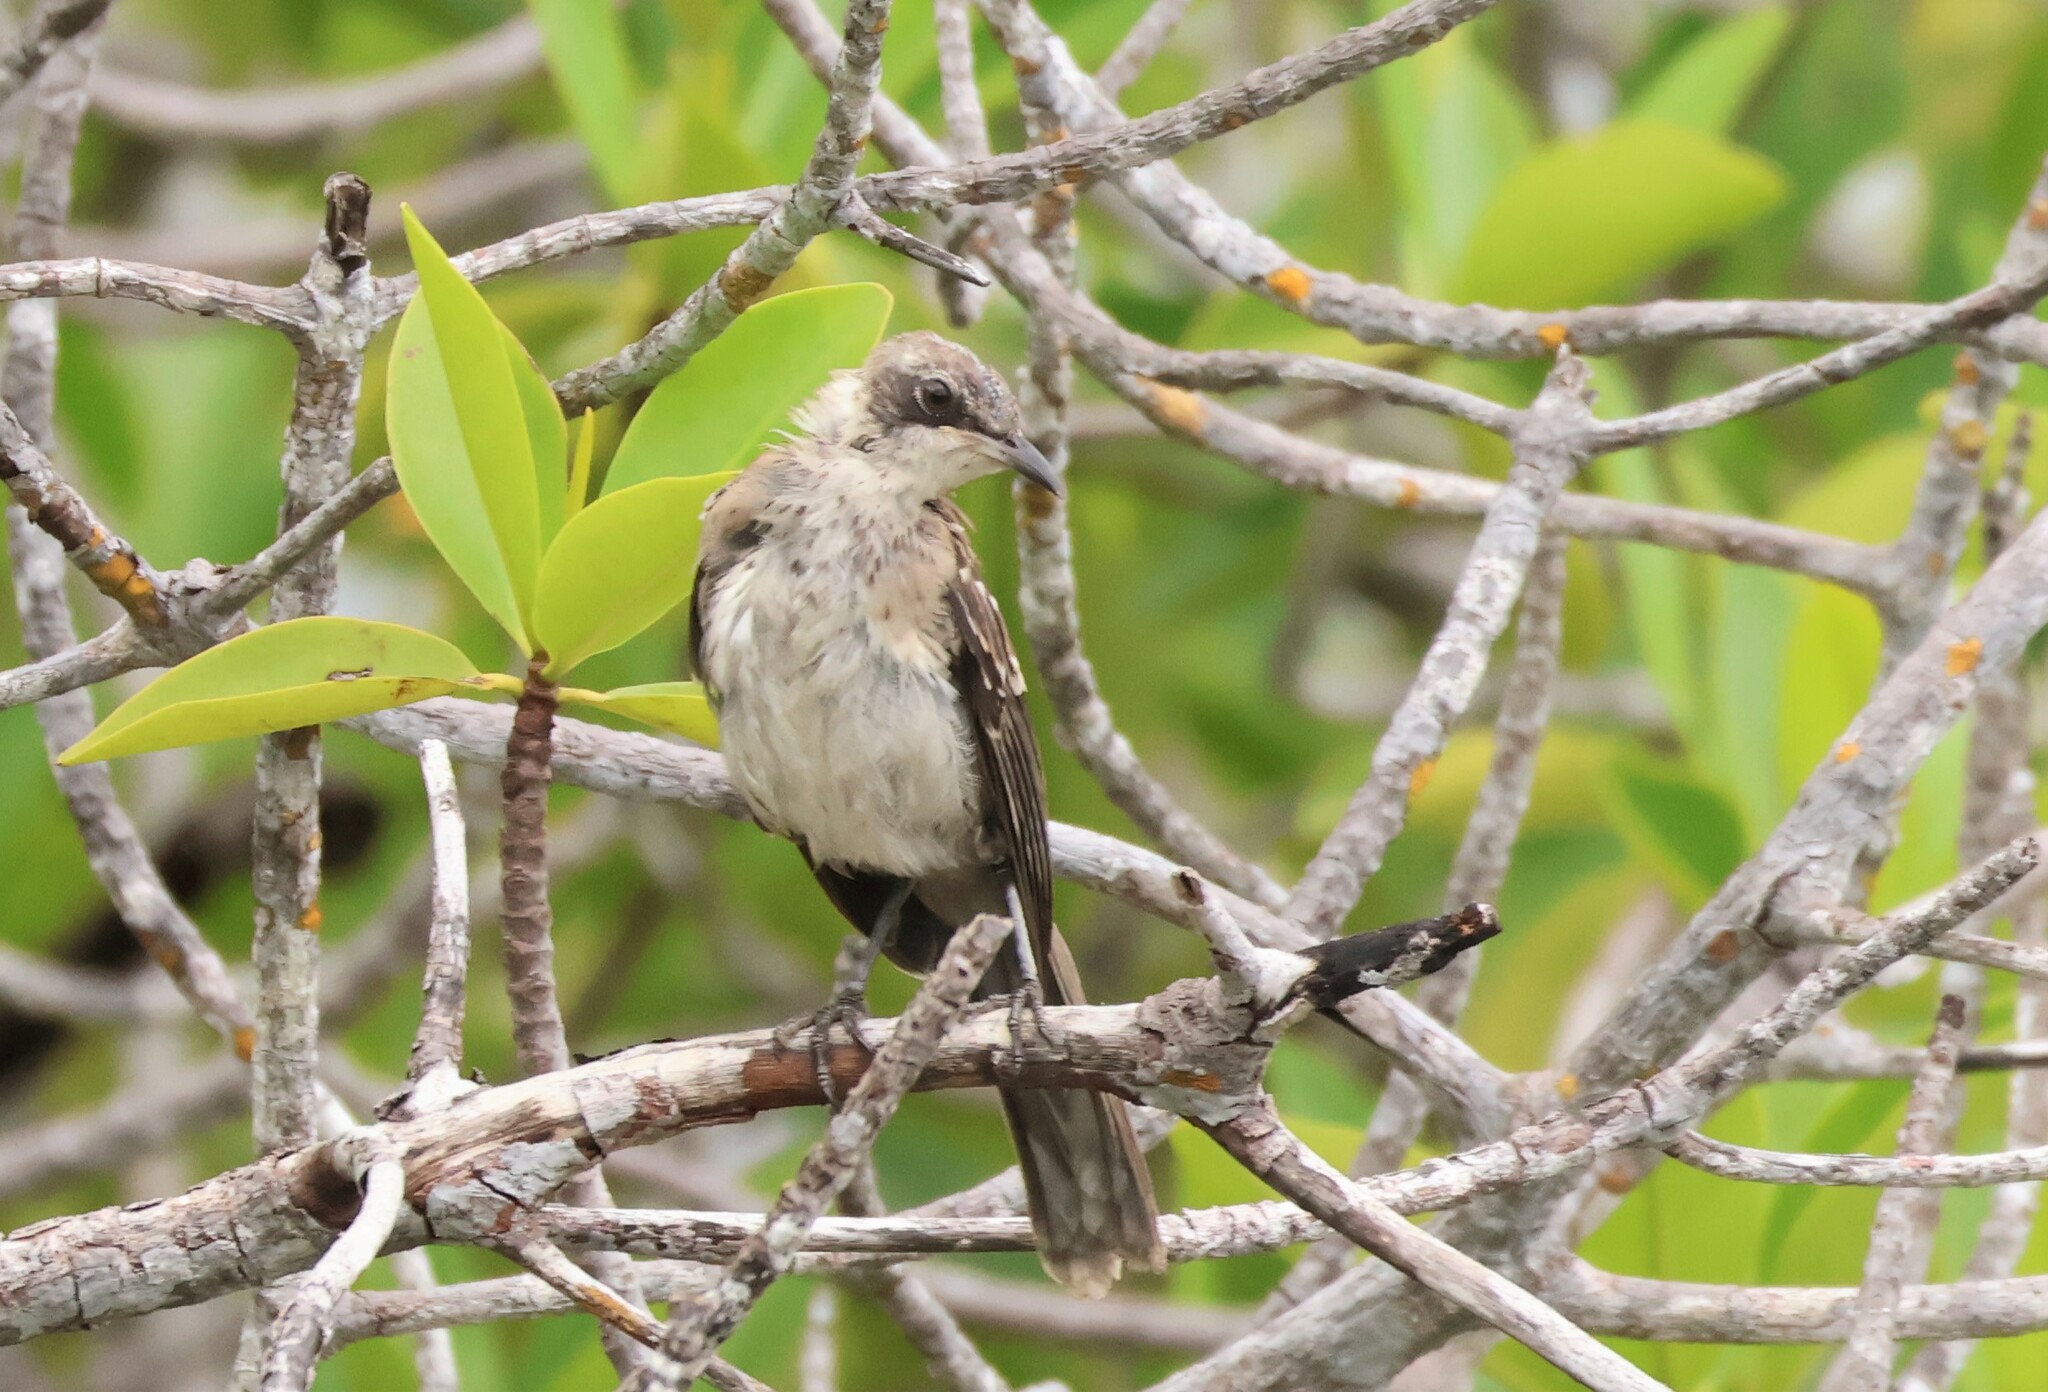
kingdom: Animalia
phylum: Chordata
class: Aves
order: Passeriformes
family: Mimidae
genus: Mimus
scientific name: Mimus parvulus
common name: Galapagos mockingbird
